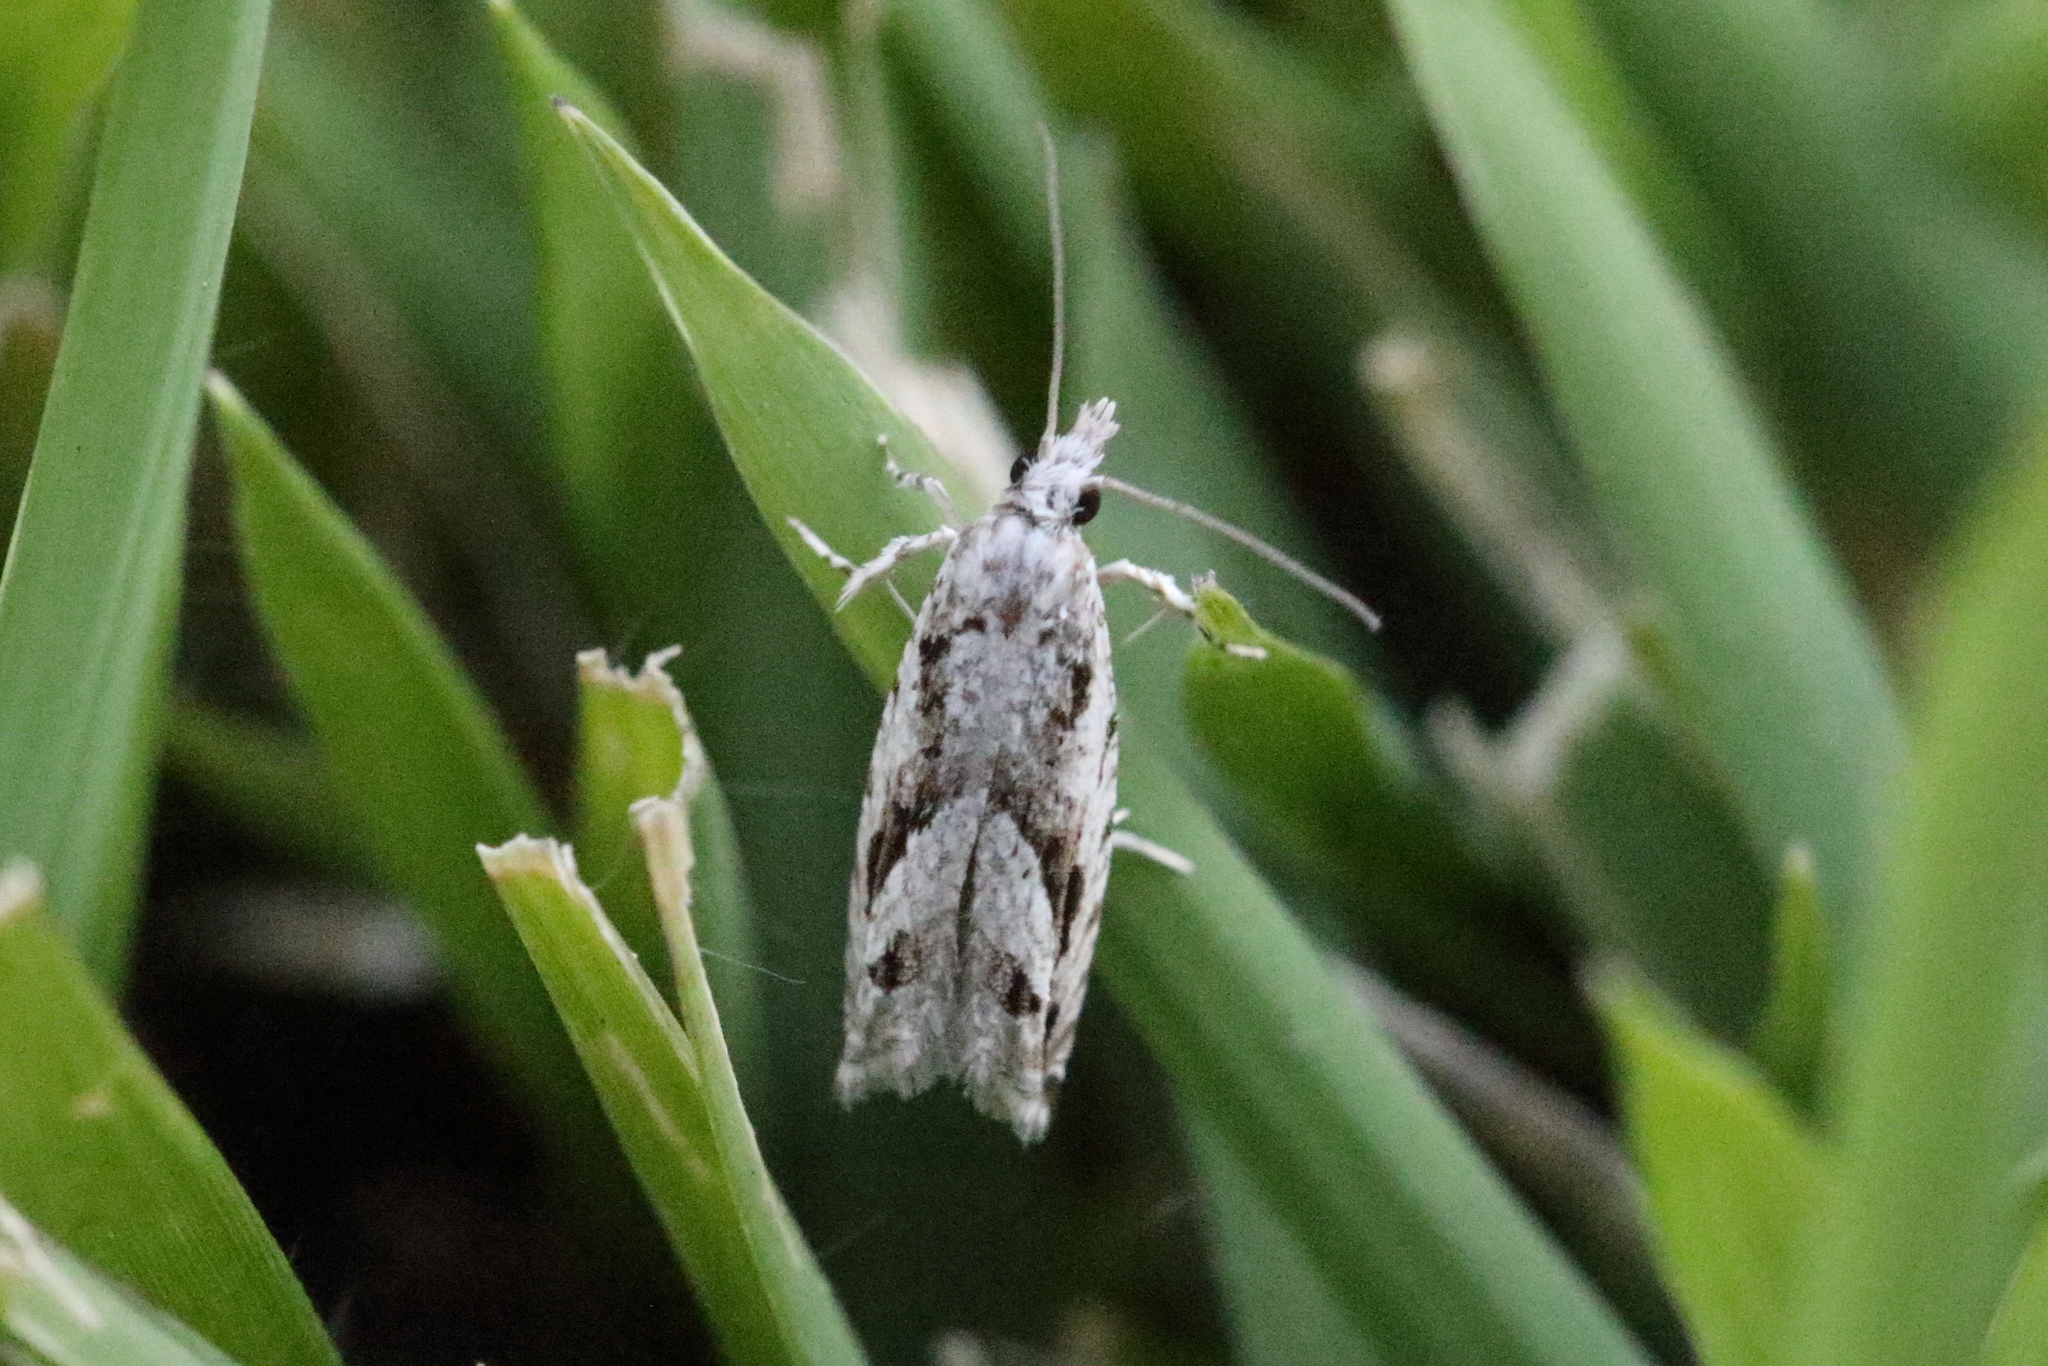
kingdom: Animalia
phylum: Arthropoda
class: Insecta
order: Lepidoptera
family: Tortricidae
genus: Holocola
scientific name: Holocola thalassinana
